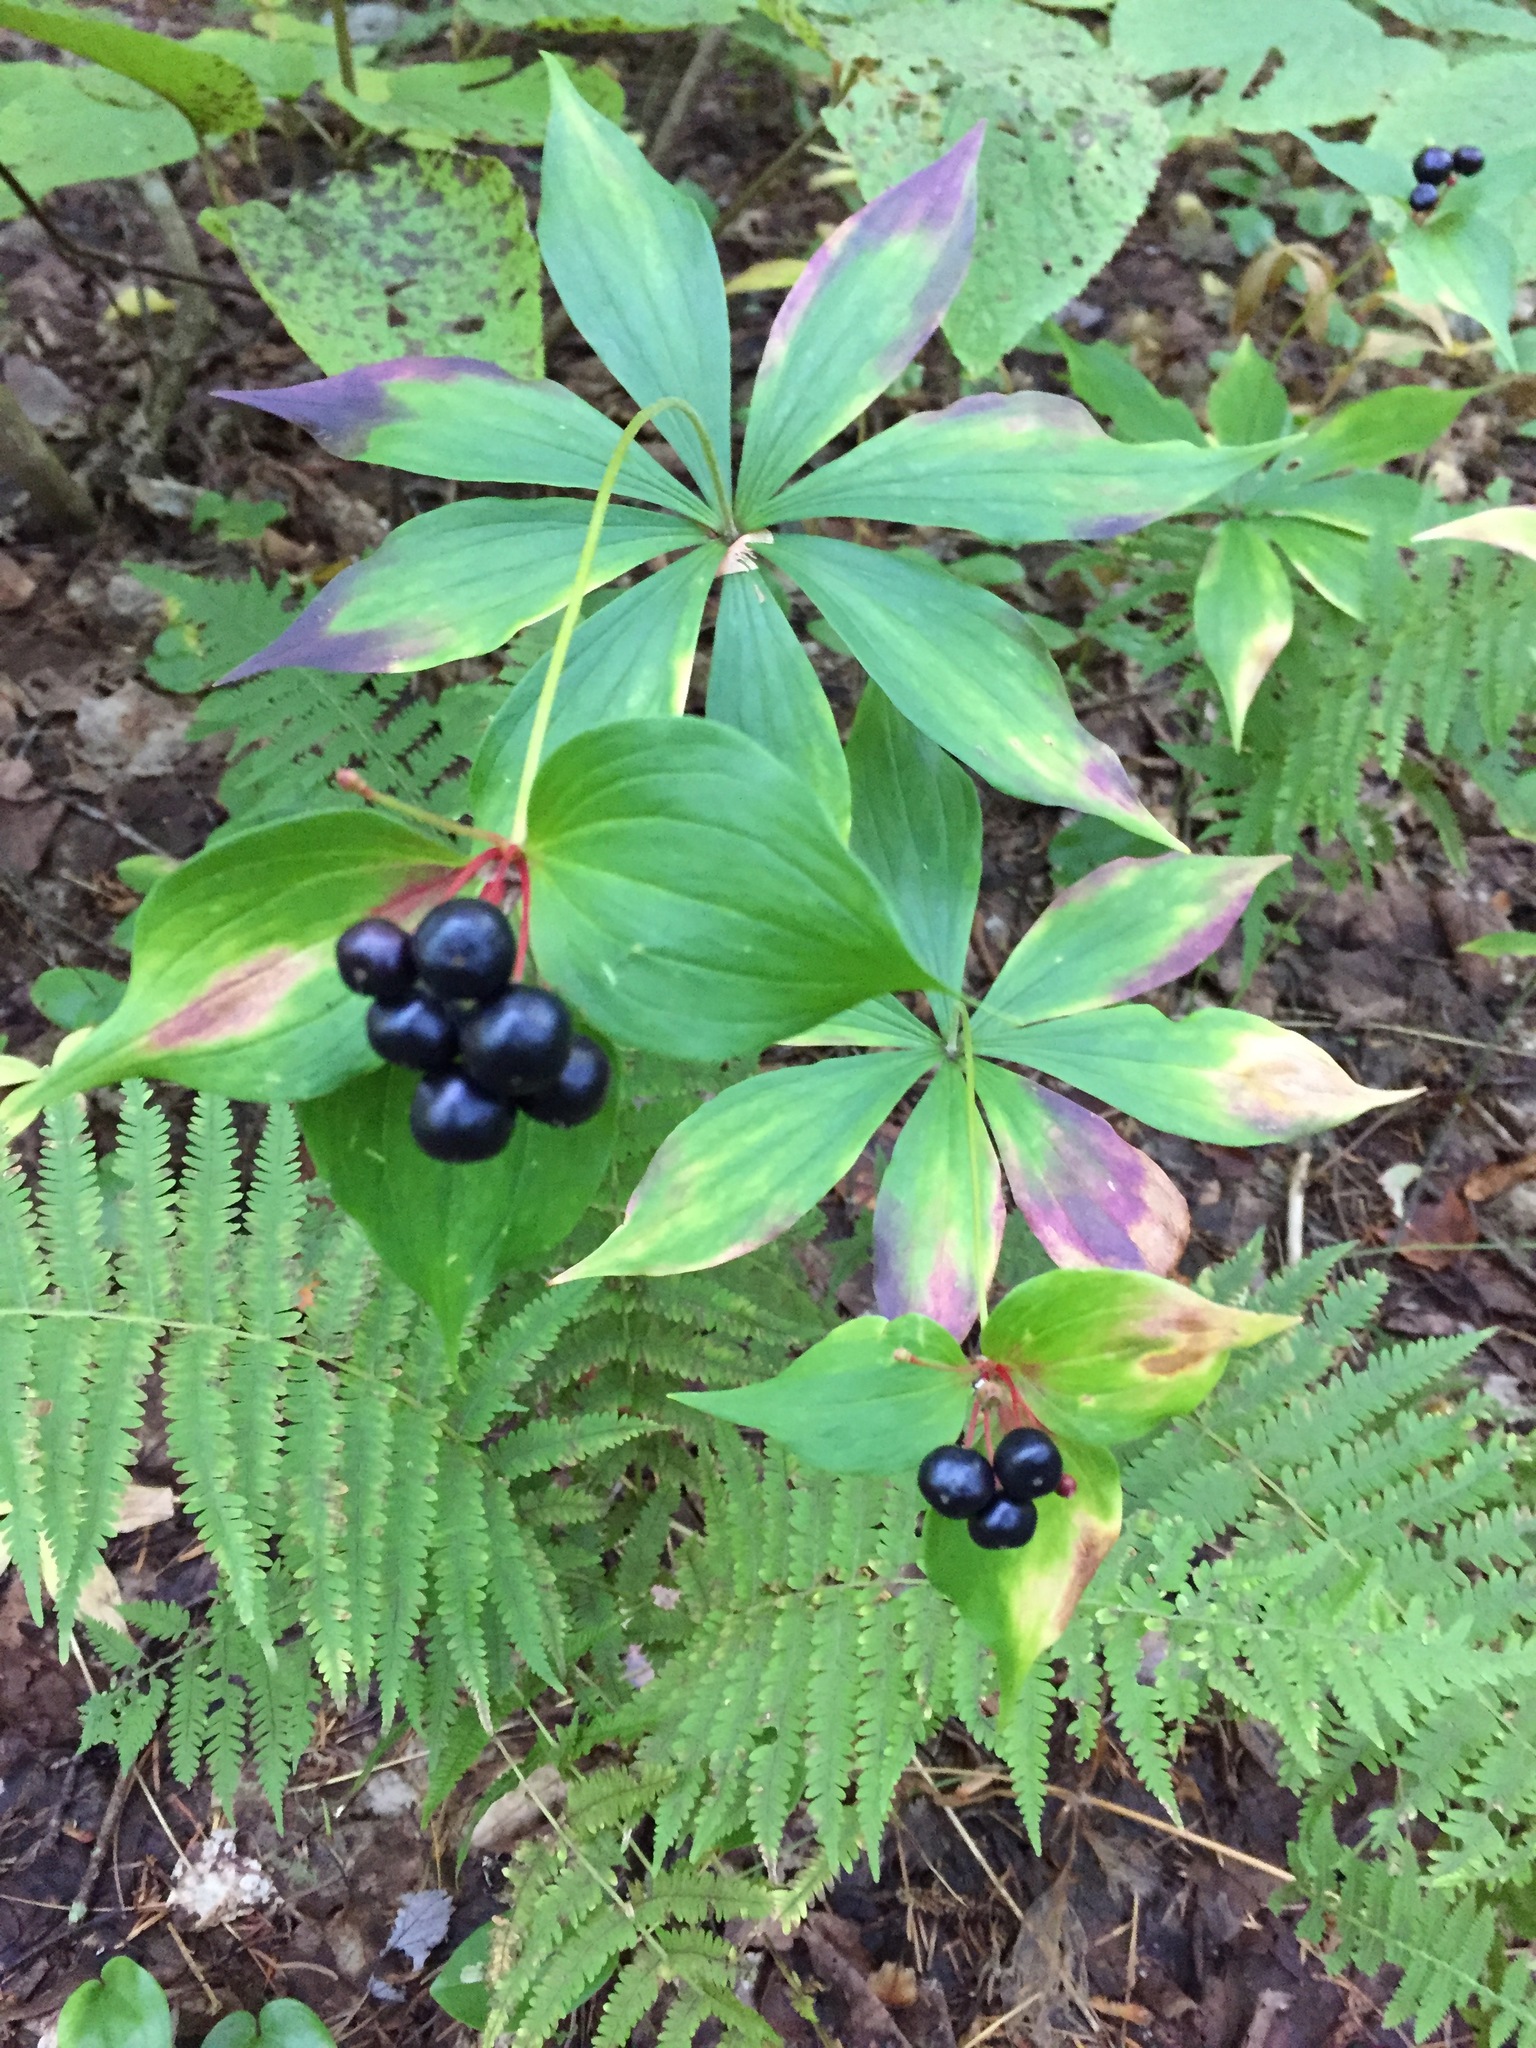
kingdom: Plantae
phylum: Tracheophyta
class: Liliopsida
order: Liliales
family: Liliaceae
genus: Medeola
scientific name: Medeola virginiana
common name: Indian cucumber-root
